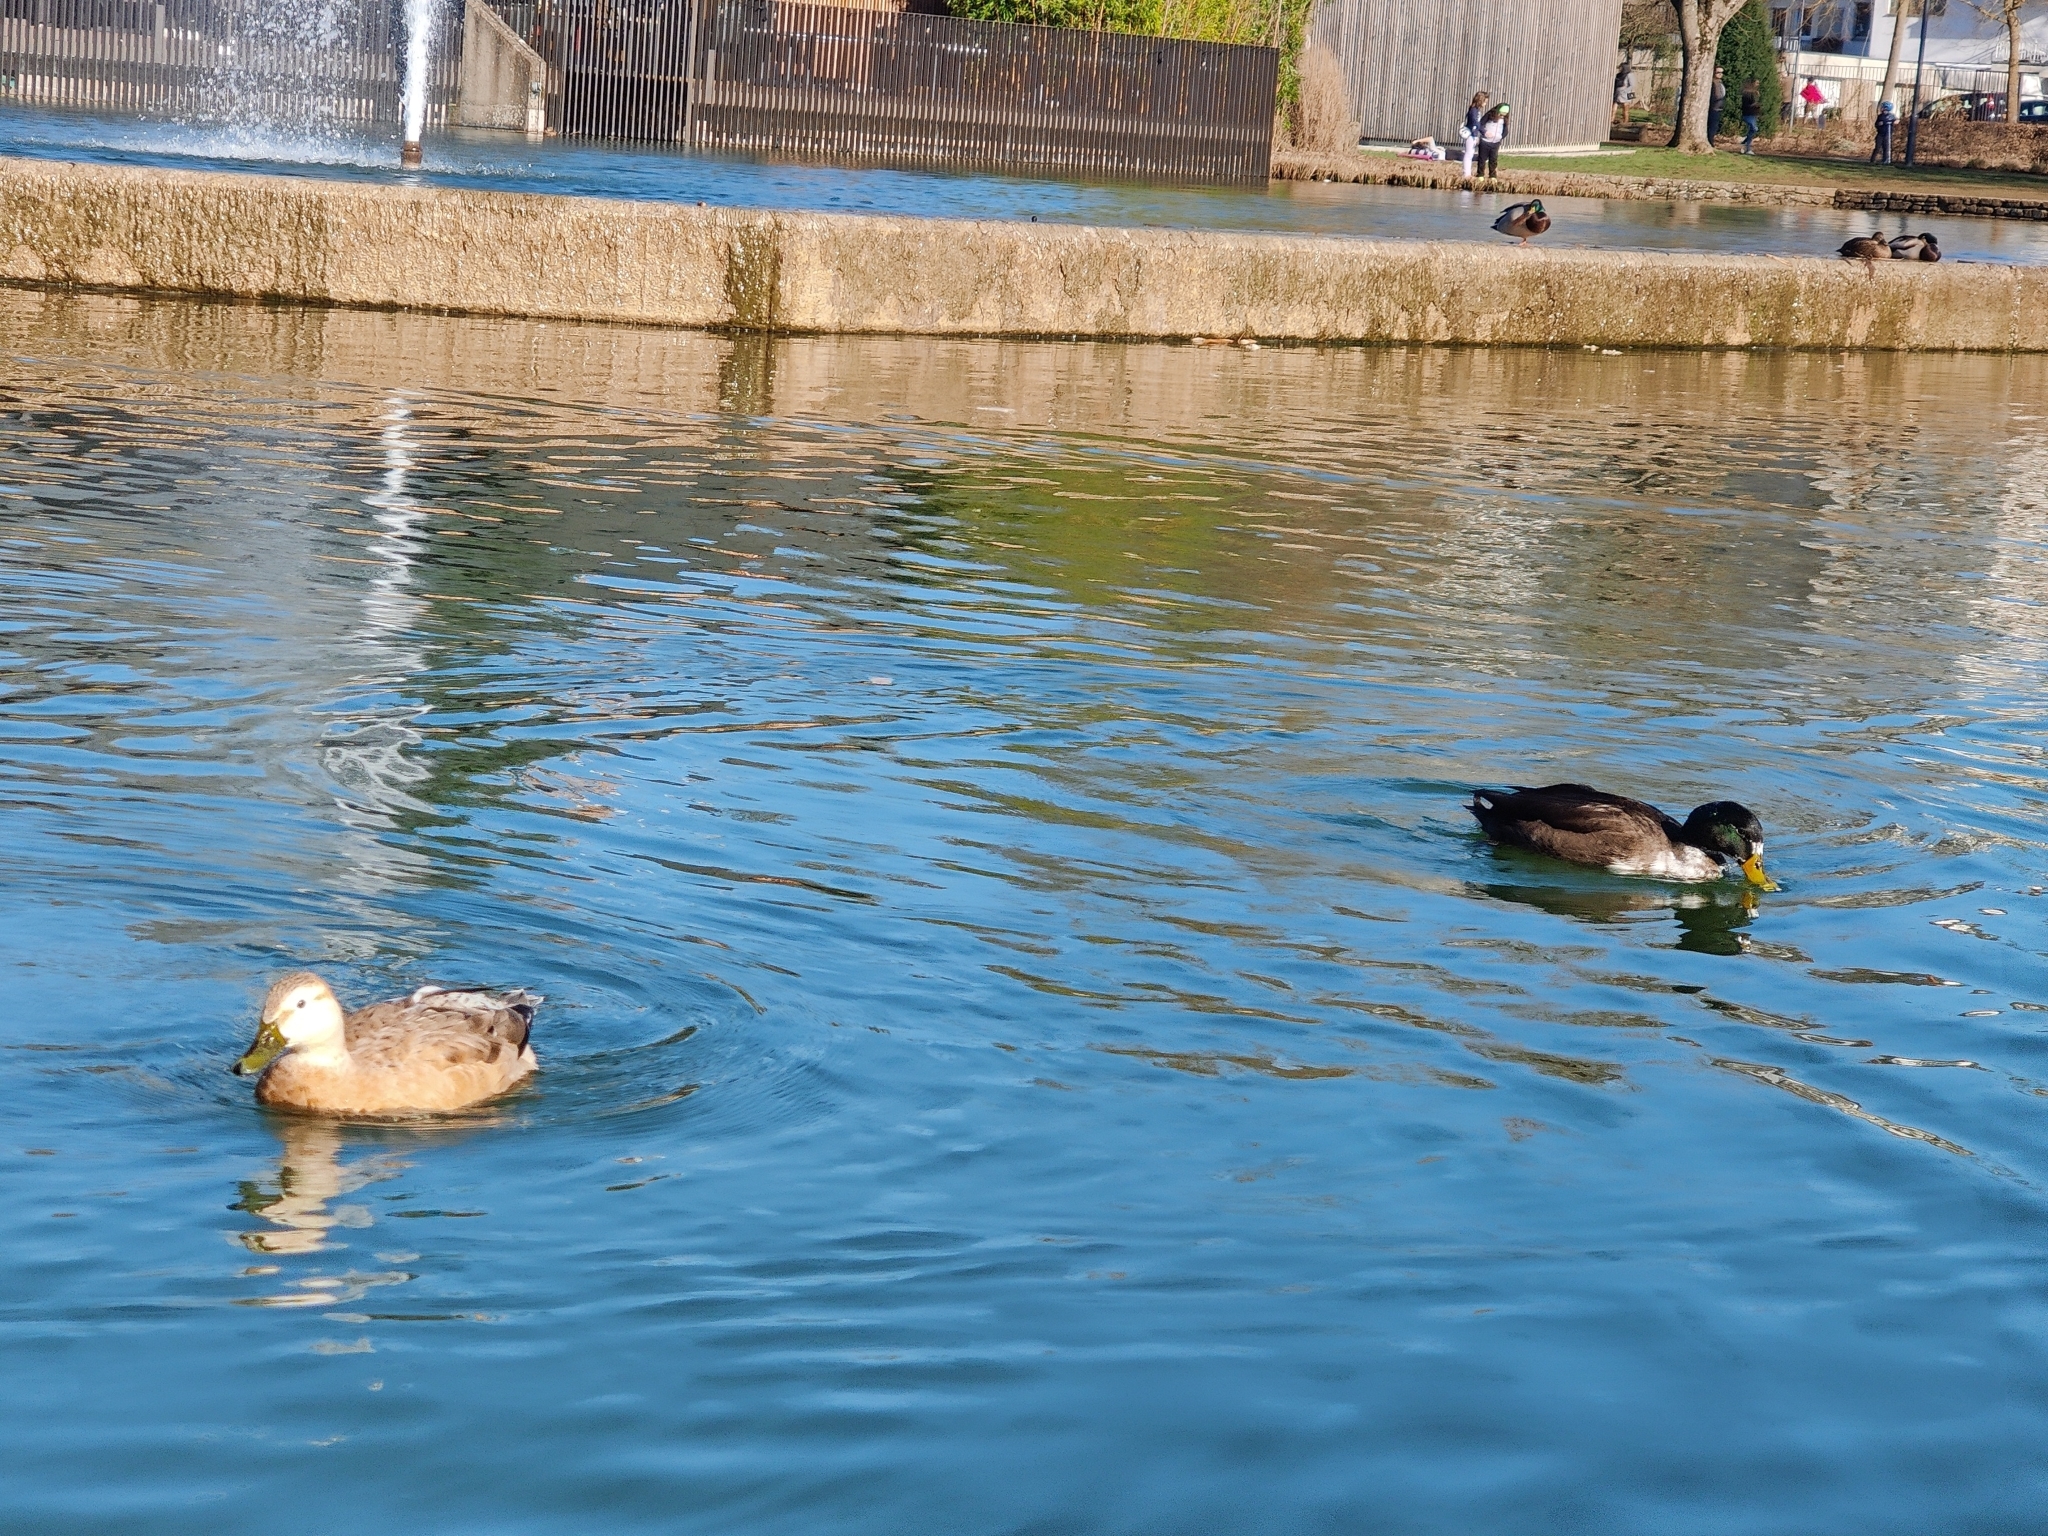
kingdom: Animalia
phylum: Chordata
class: Aves
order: Anseriformes
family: Anatidae
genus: Anas
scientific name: Anas platyrhynchos
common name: Mallard
